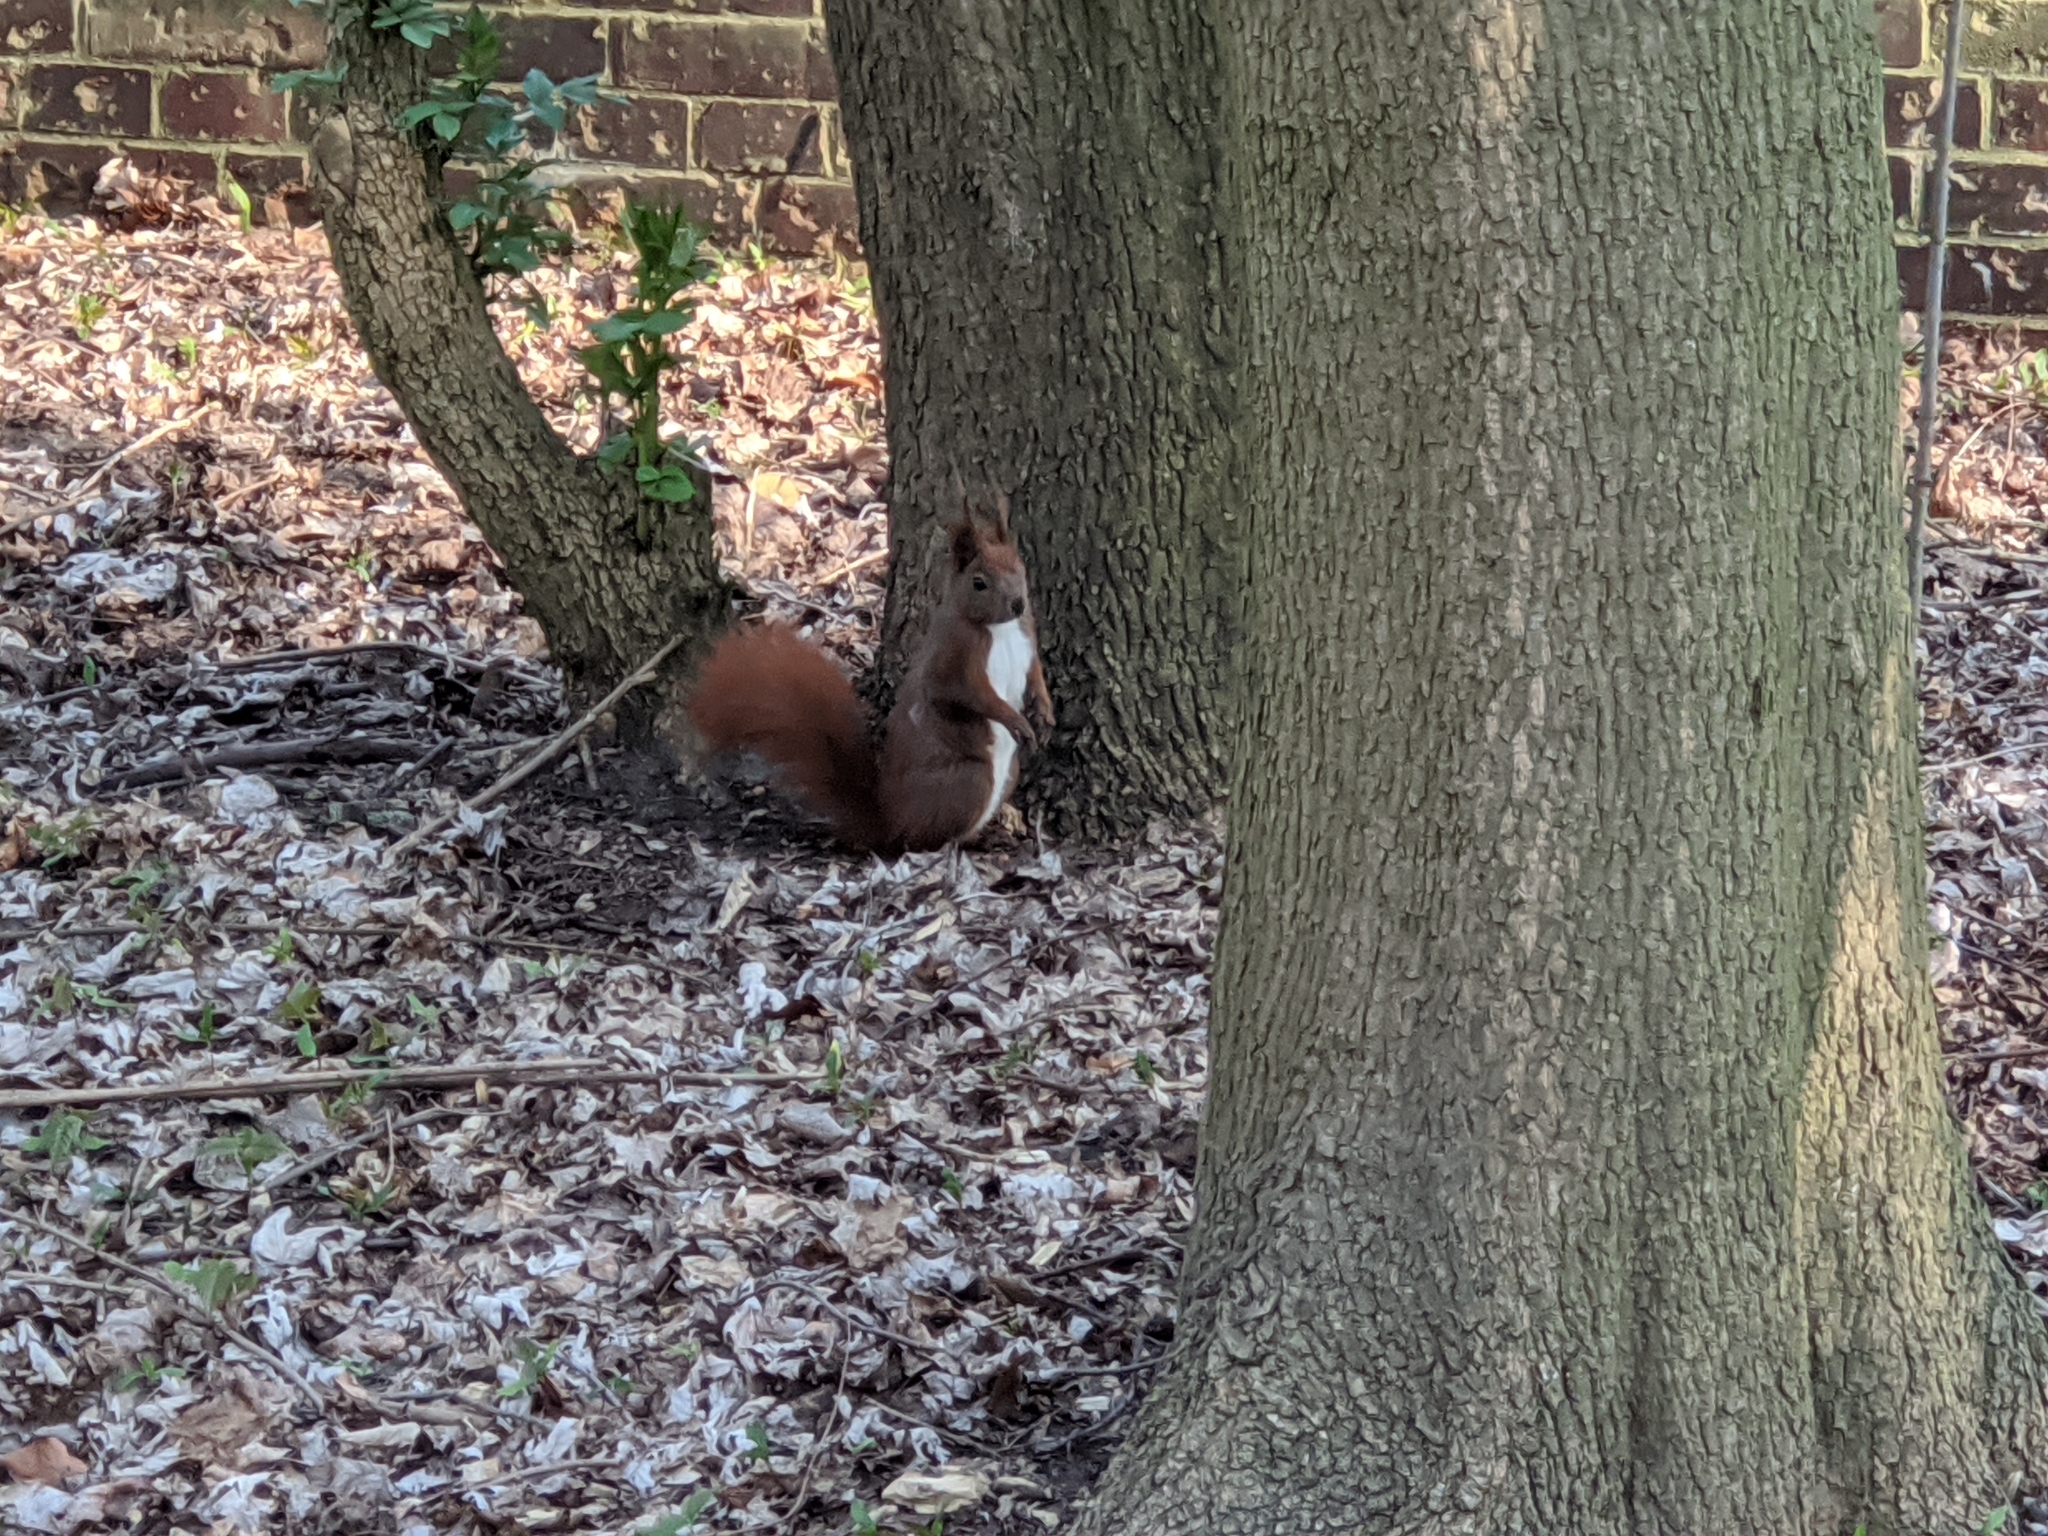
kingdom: Animalia
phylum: Chordata
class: Mammalia
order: Rodentia
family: Sciuridae
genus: Sciurus
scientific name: Sciurus vulgaris
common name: Eurasian red squirrel
